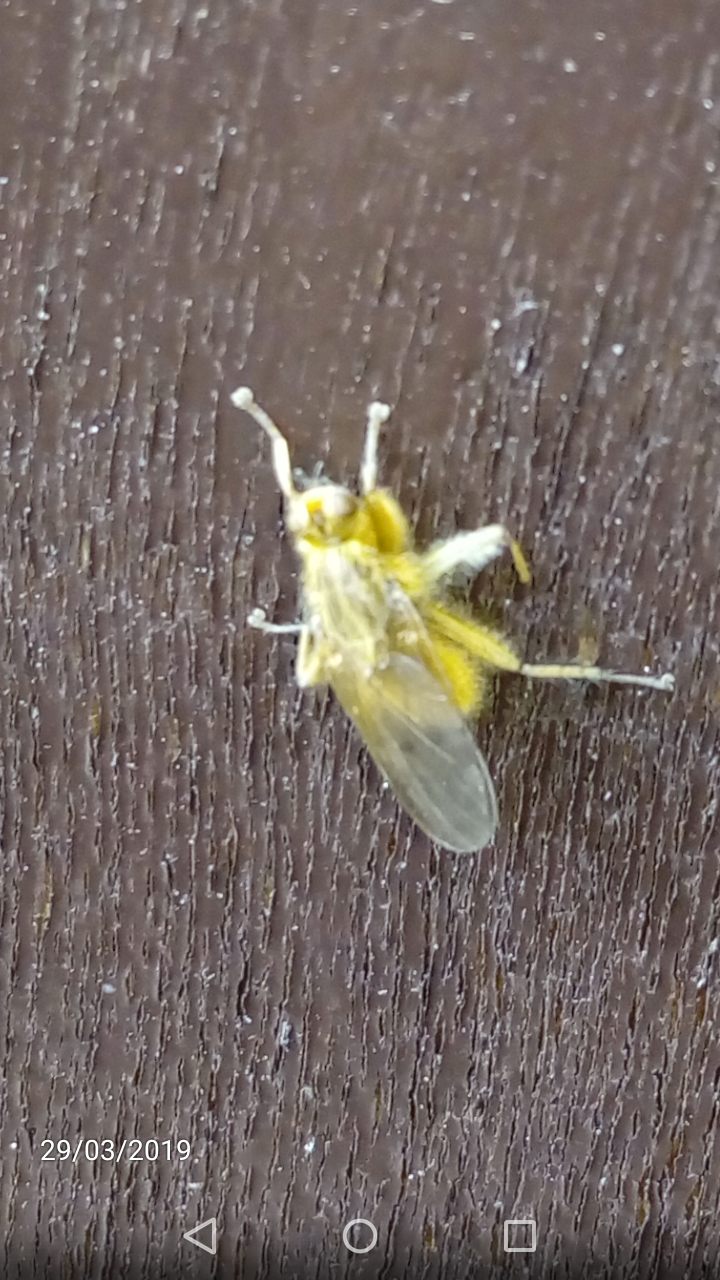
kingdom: Animalia
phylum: Arthropoda
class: Insecta
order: Diptera
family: Scathophagidae
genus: Scathophaga
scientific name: Scathophaga stercoraria
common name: Yellow dung fly
